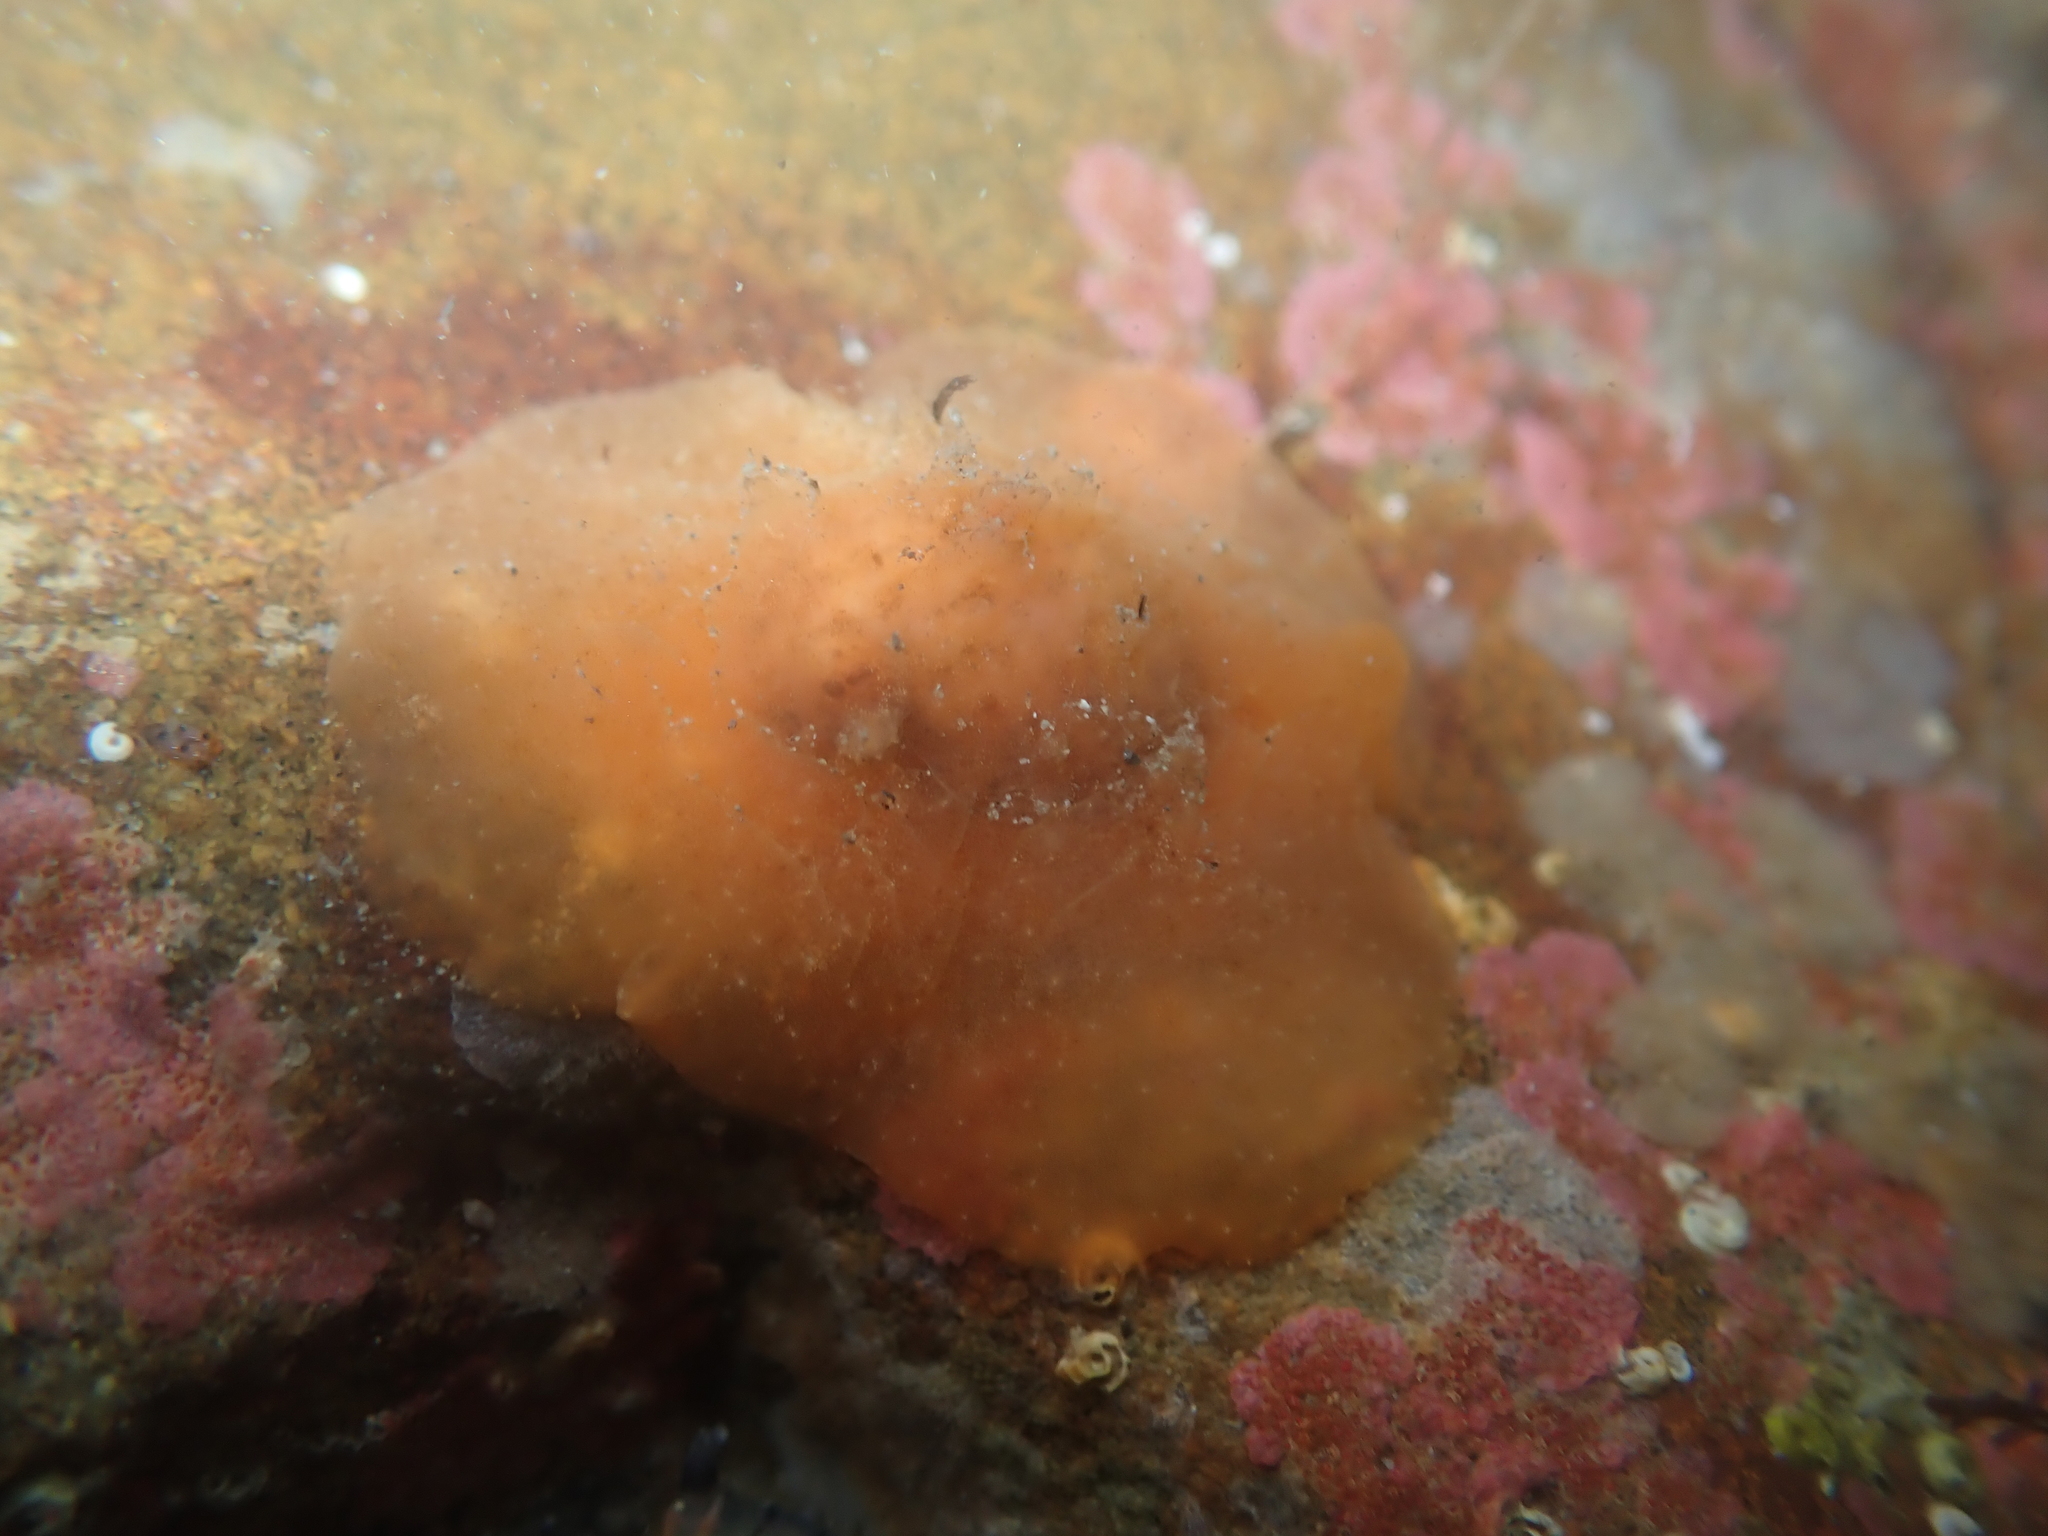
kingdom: Animalia
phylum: Mollusca
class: Gastropoda
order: Littorinimorpha
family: Velutinidae
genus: Lamellaria
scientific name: Lamellaria ophione
